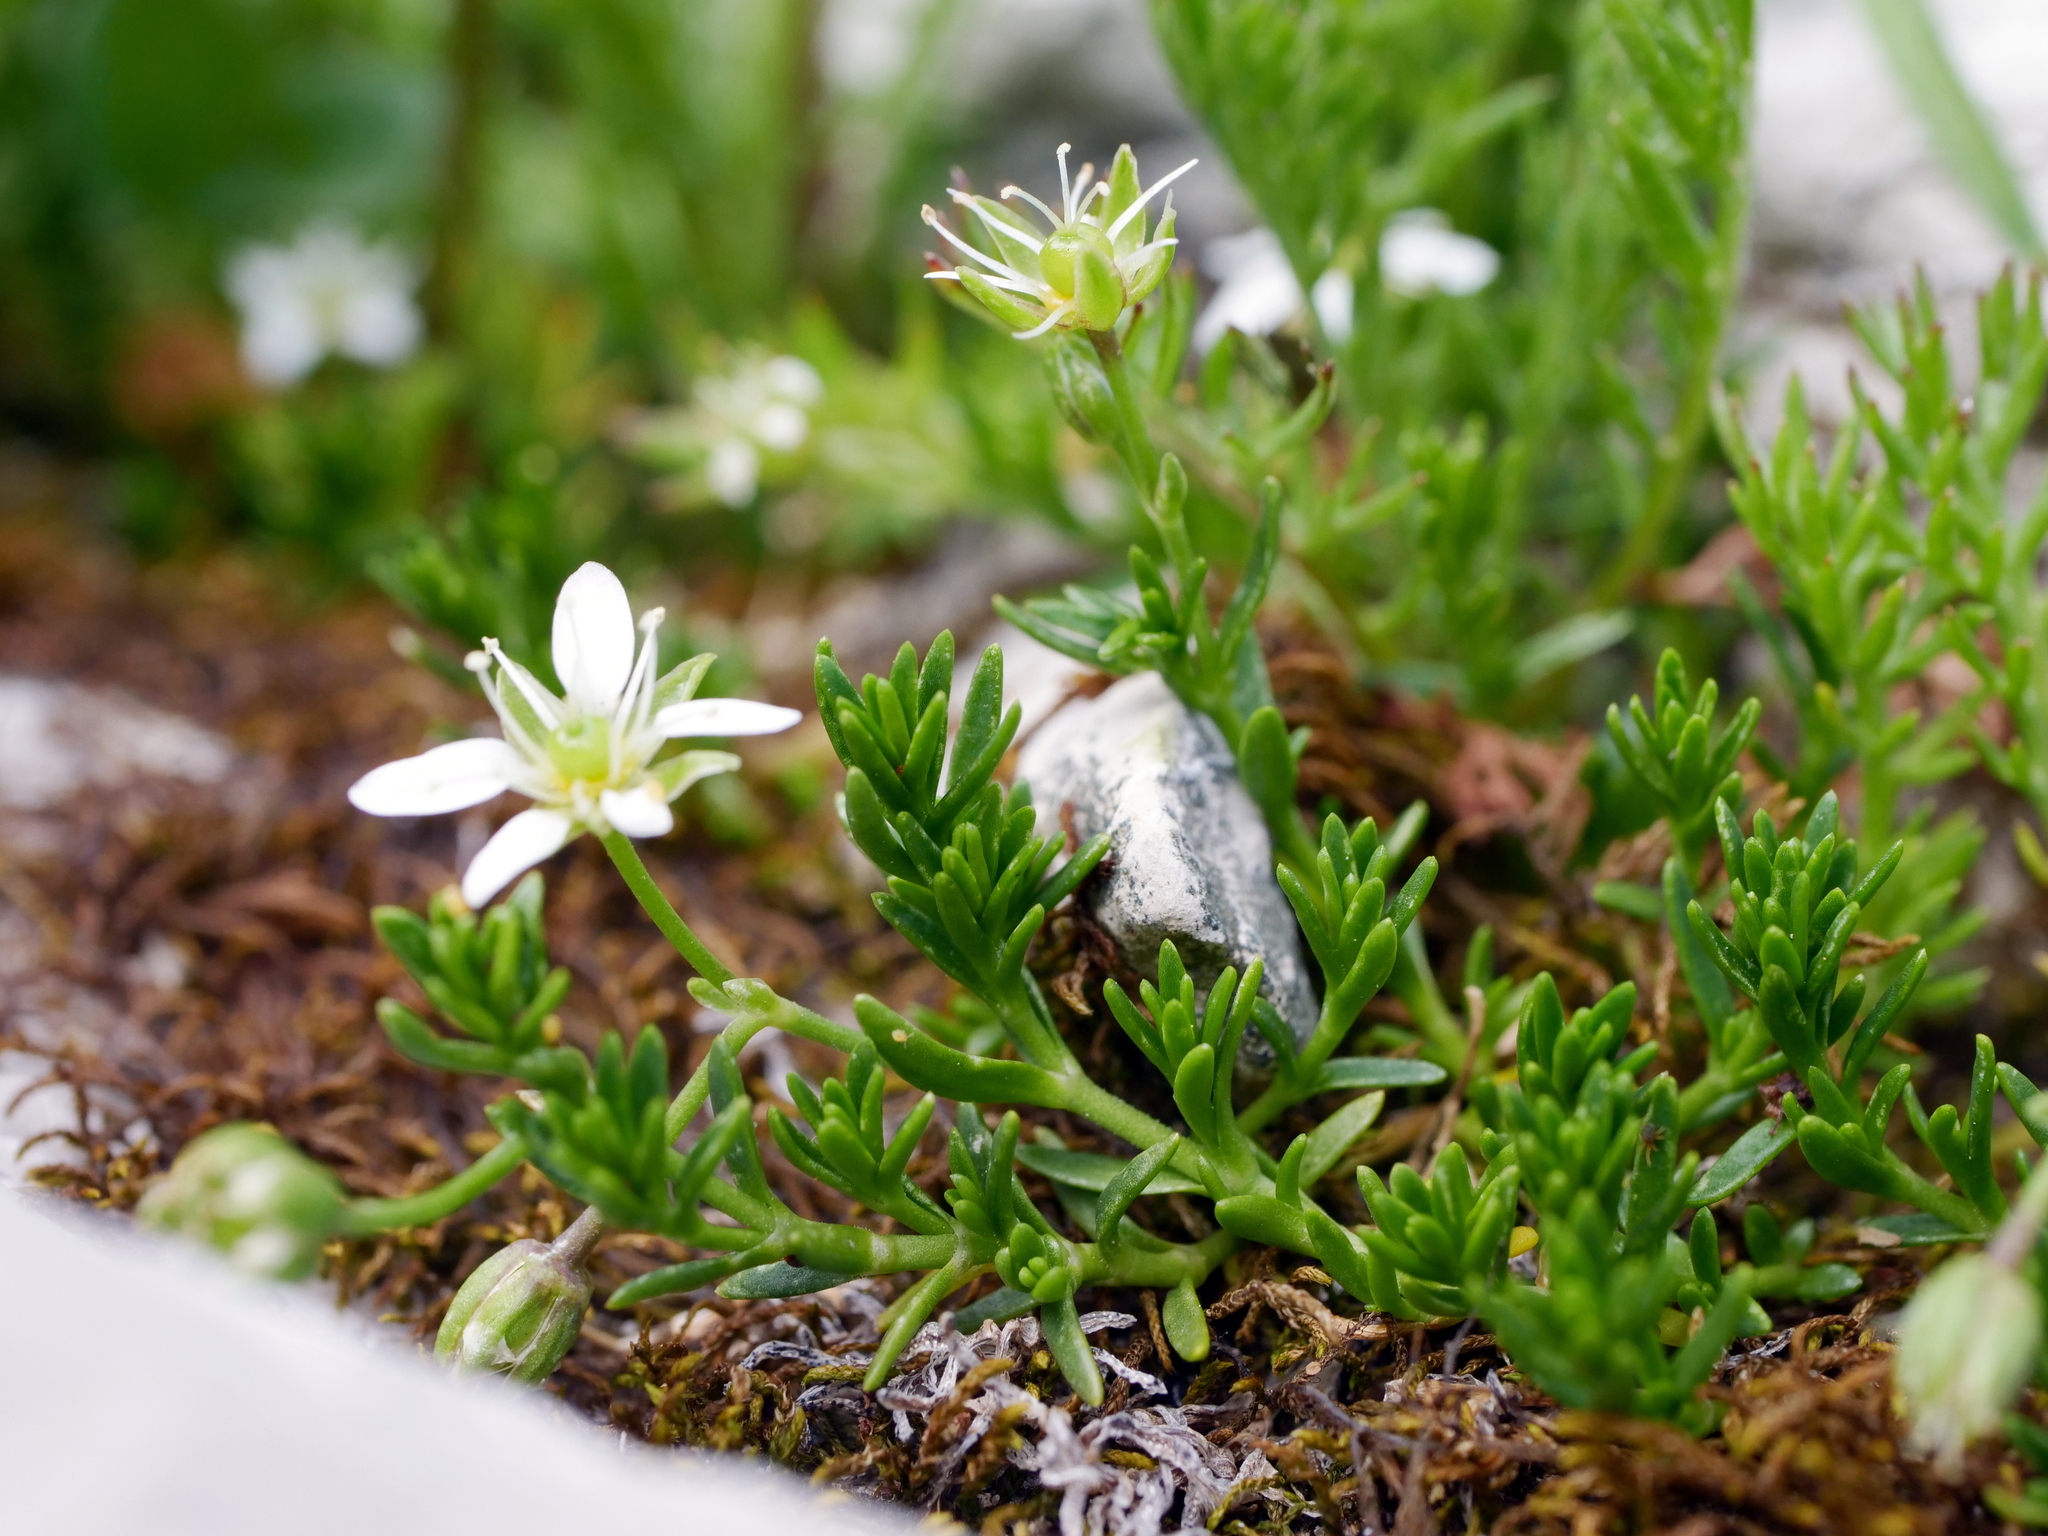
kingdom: Plantae
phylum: Tracheophyta
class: Magnoliopsida
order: Caryophyllales
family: Caryophyllaceae
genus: Moehringia
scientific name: Moehringia ciliata
